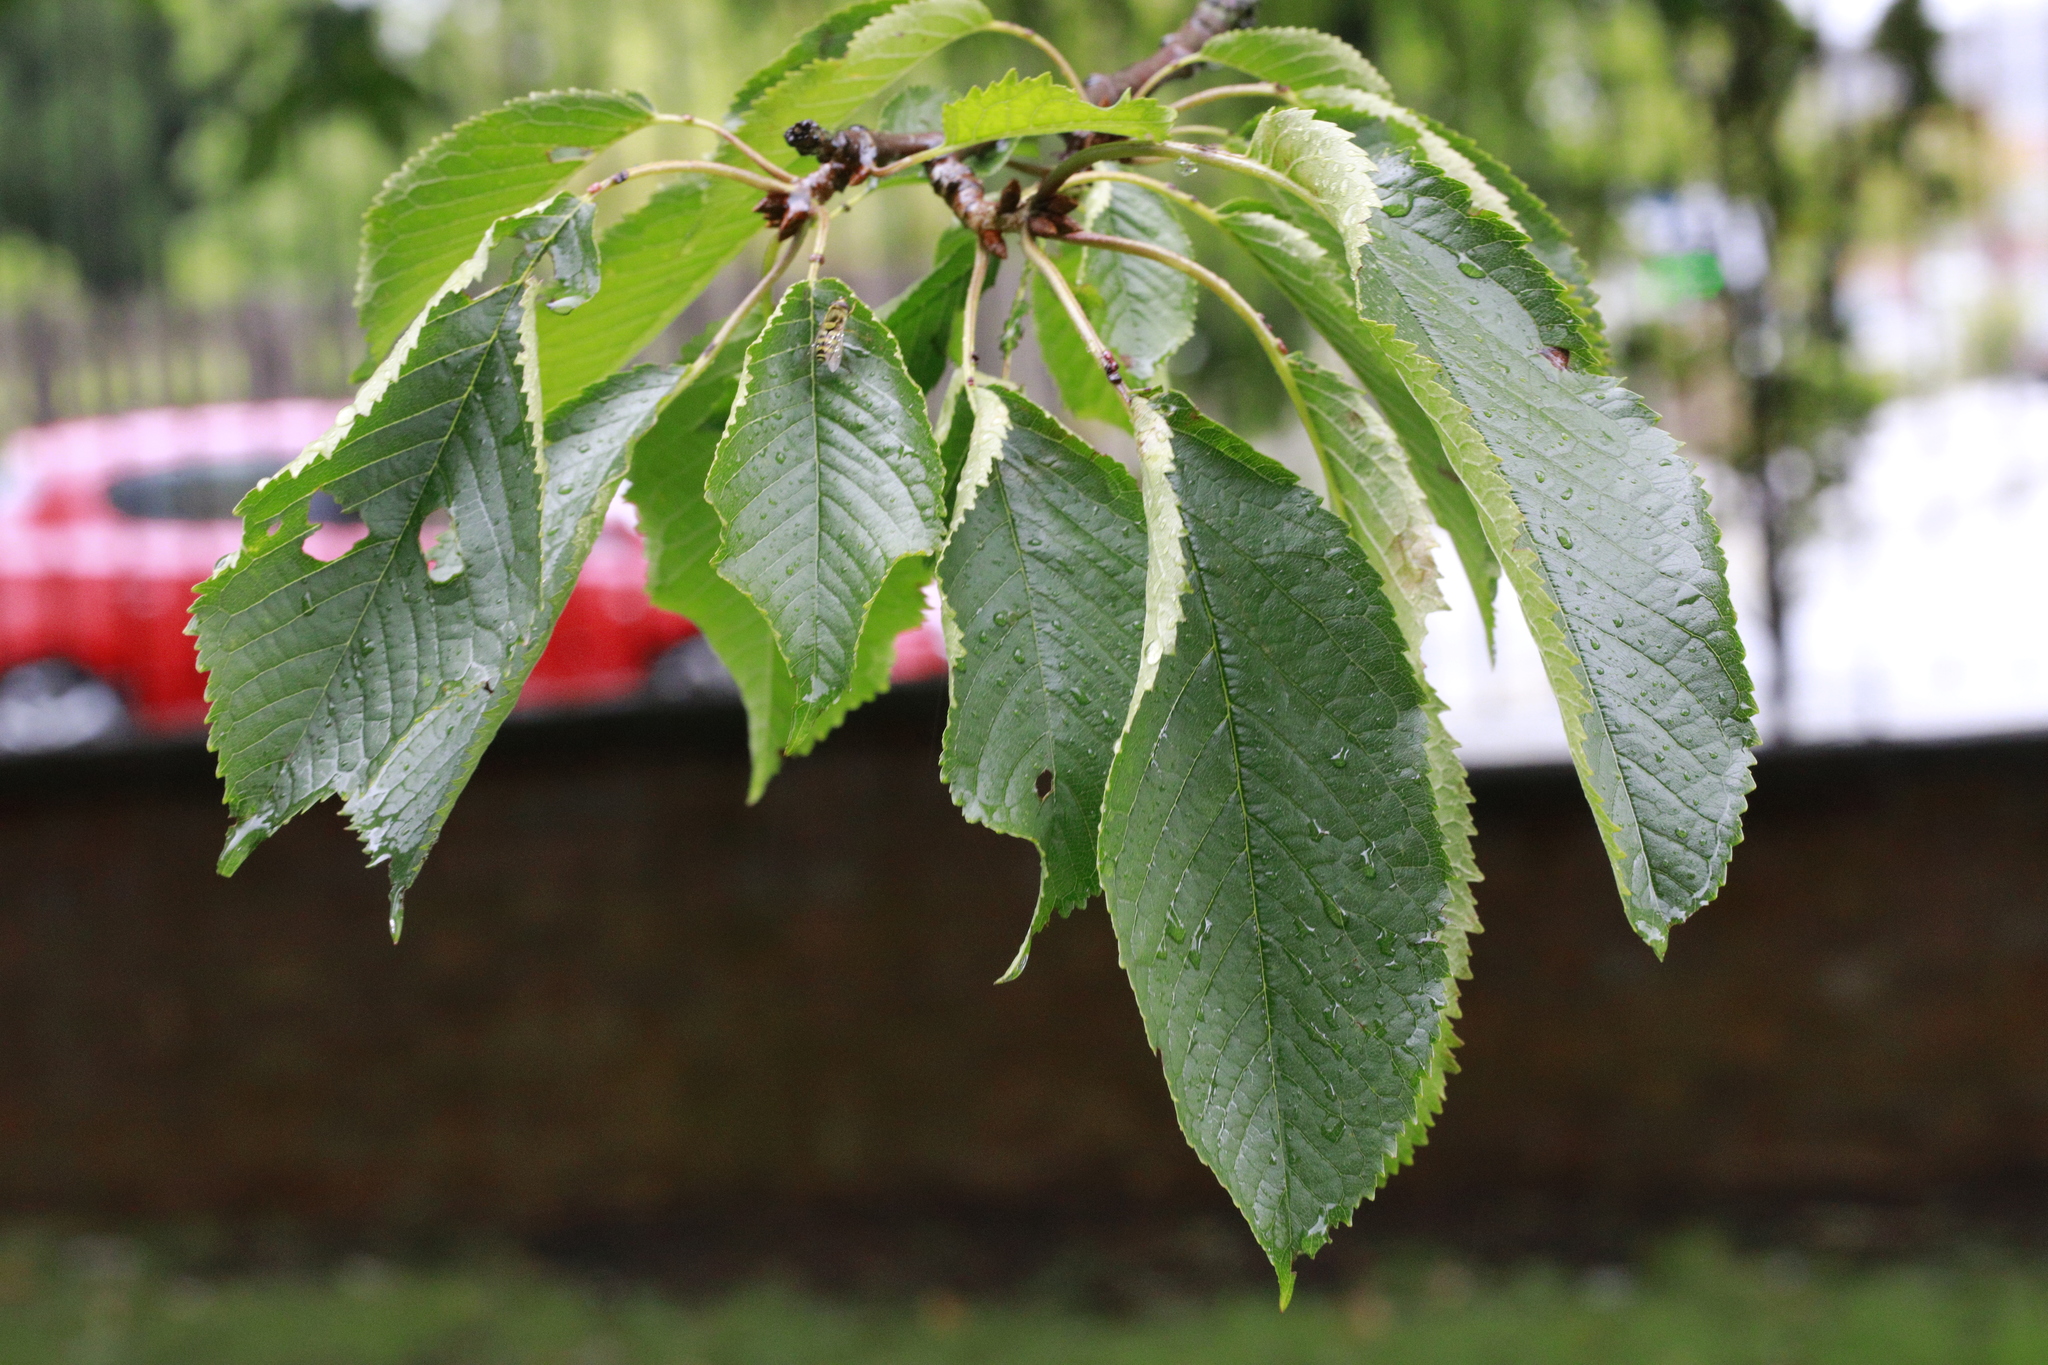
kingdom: Plantae
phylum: Tracheophyta
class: Magnoliopsida
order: Rosales
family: Rosaceae
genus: Prunus
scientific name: Prunus avium
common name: Sweet cherry
